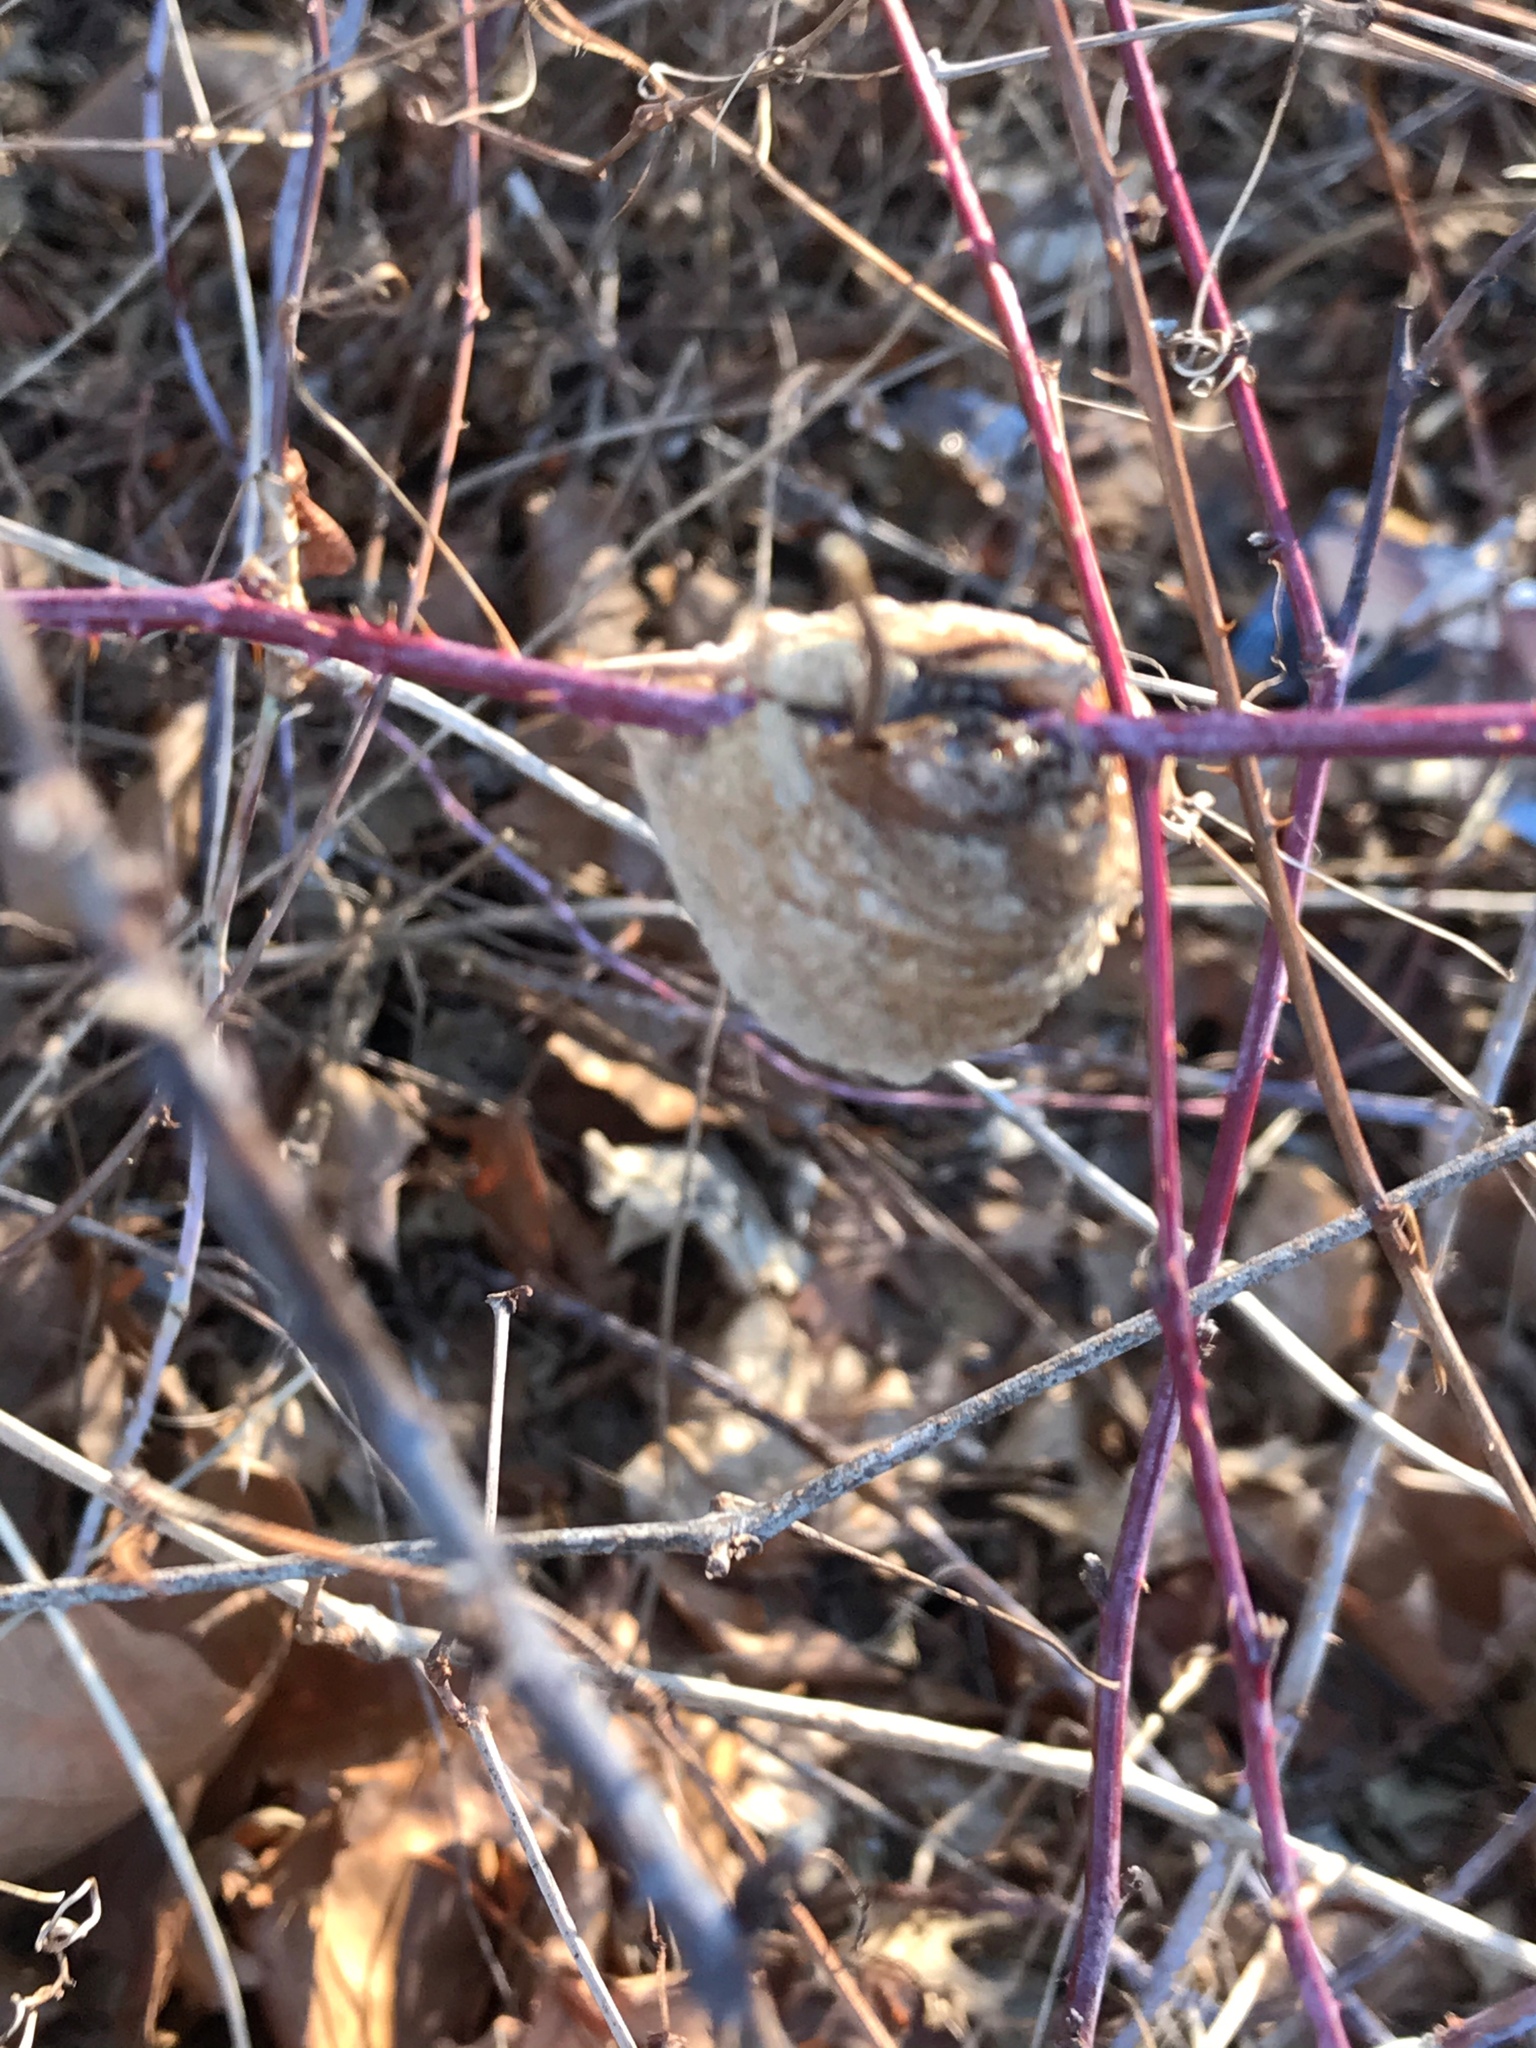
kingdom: Animalia
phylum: Arthropoda
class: Insecta
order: Mantodea
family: Mantidae
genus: Tenodera
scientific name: Tenodera sinensis
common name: Chinese mantis
